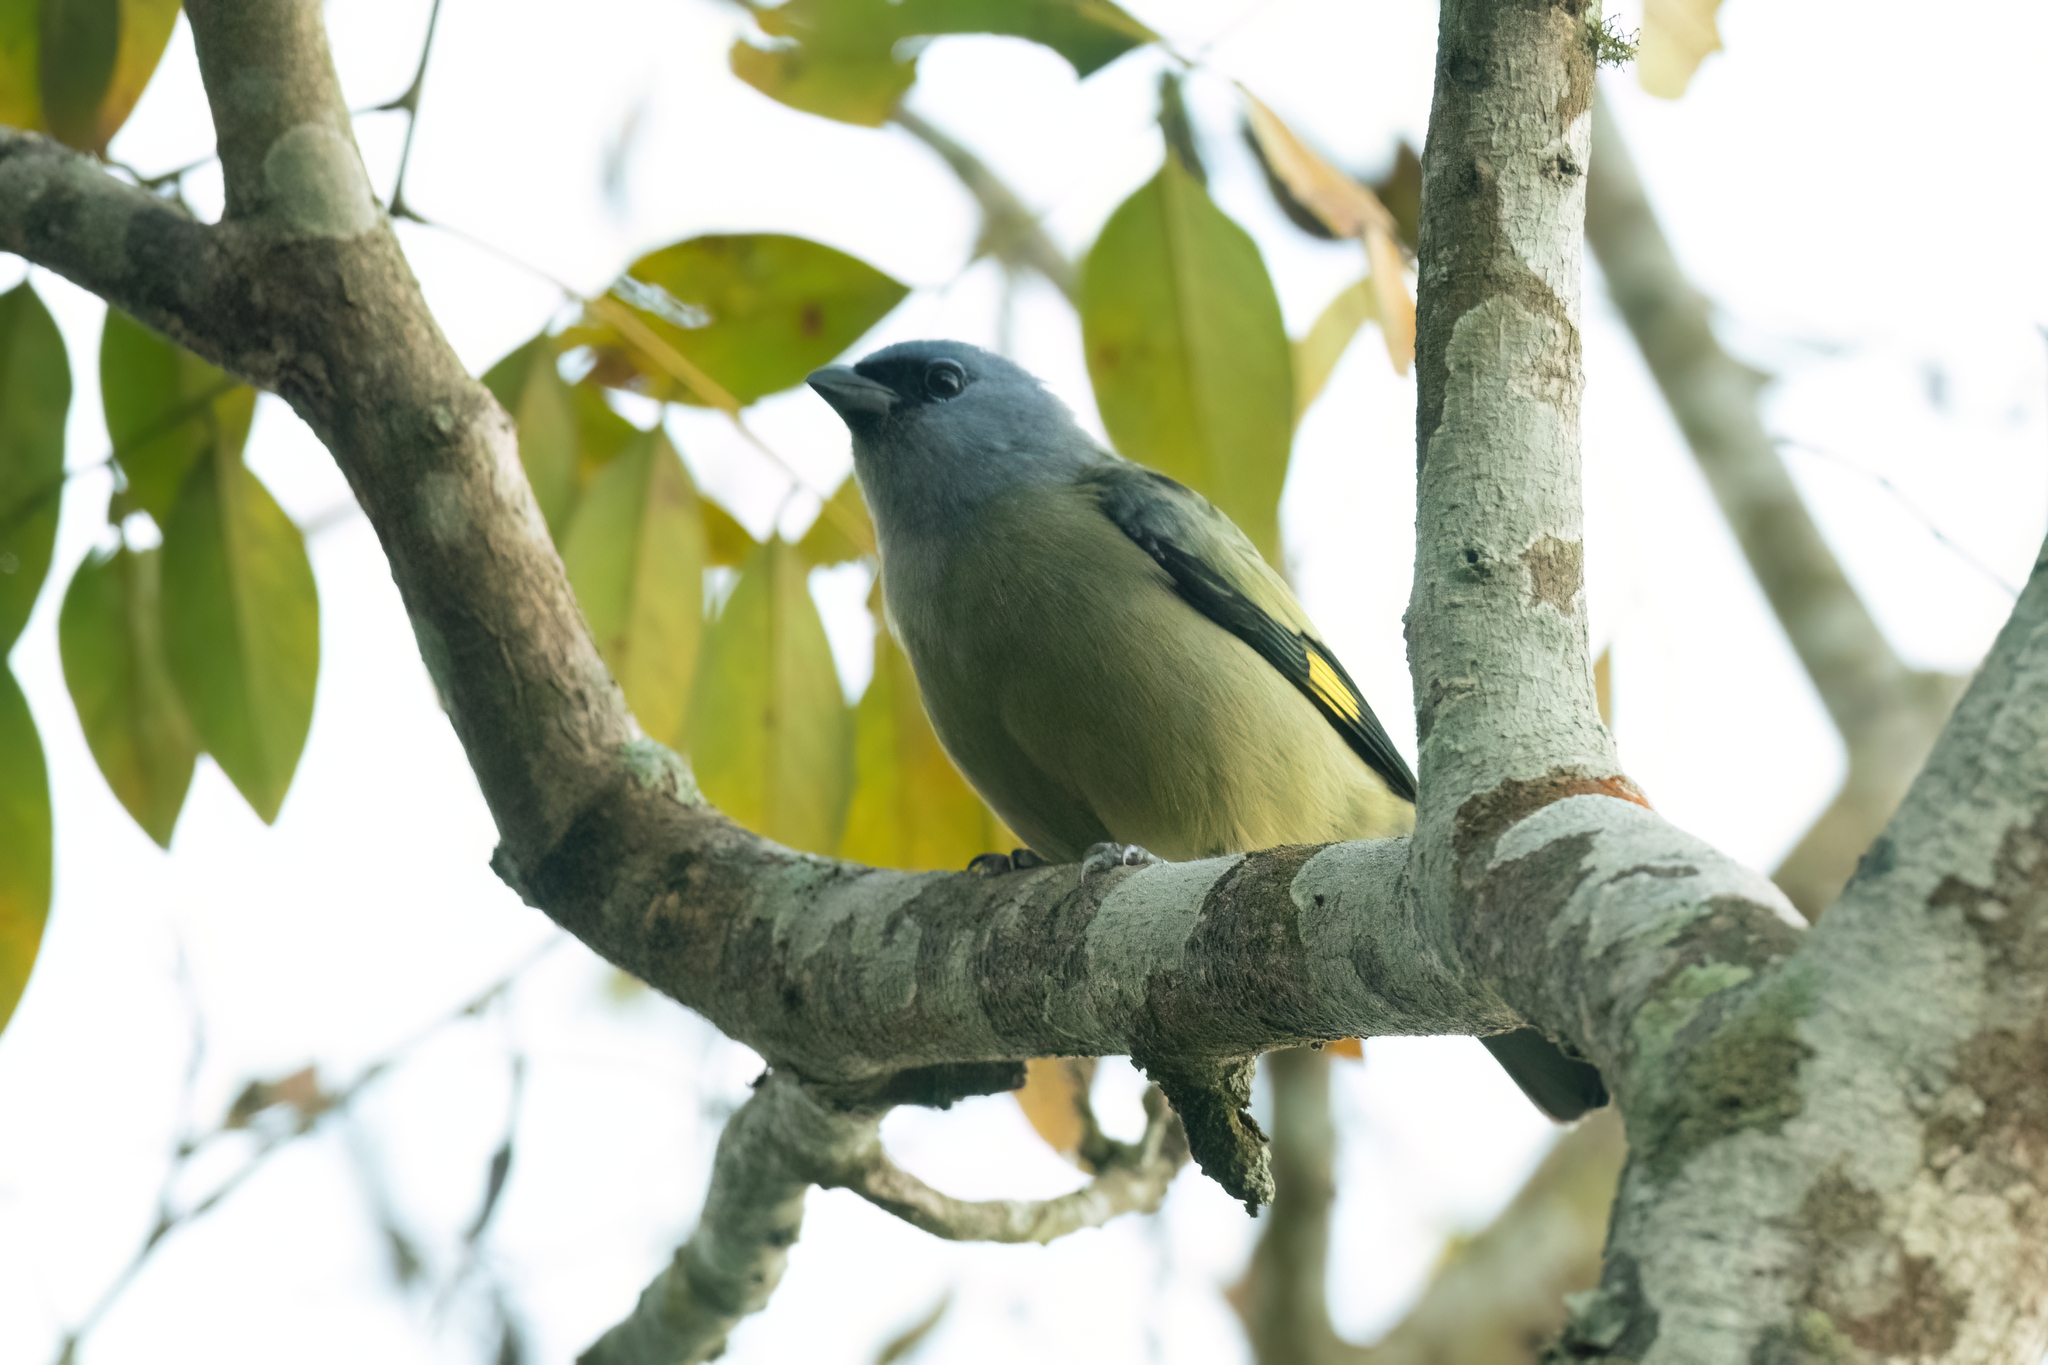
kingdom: Animalia
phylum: Chordata
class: Aves
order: Passeriformes
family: Thraupidae
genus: Thraupis
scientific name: Thraupis abbas
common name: Yellow-winged tanager
